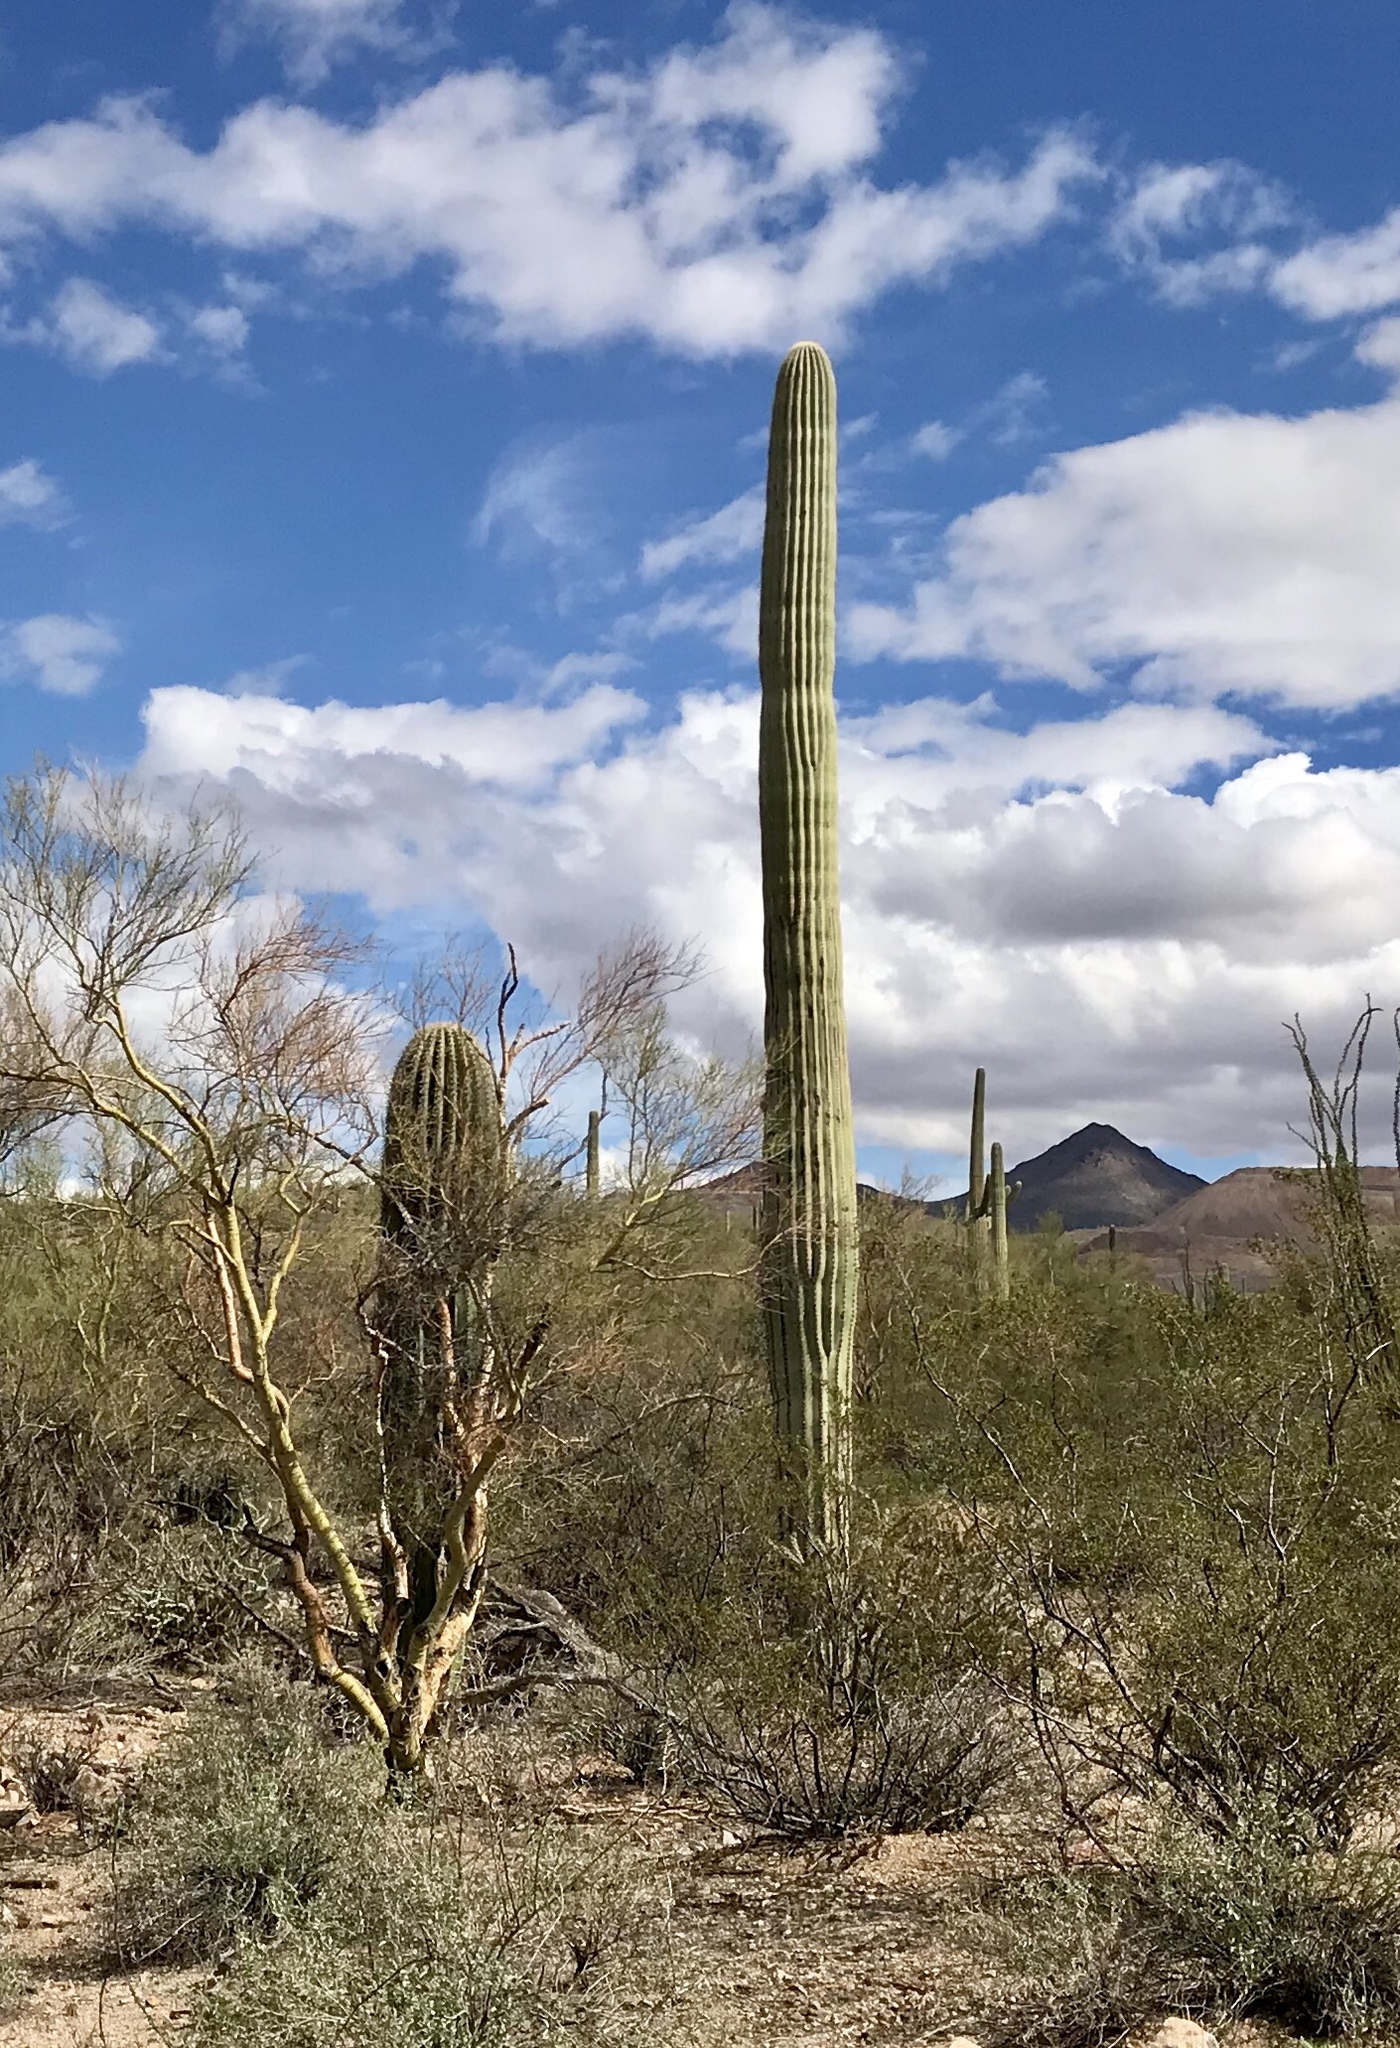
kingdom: Plantae
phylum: Tracheophyta
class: Magnoliopsida
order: Caryophyllales
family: Cactaceae
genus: Carnegiea
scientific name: Carnegiea gigantea
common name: Saguaro
